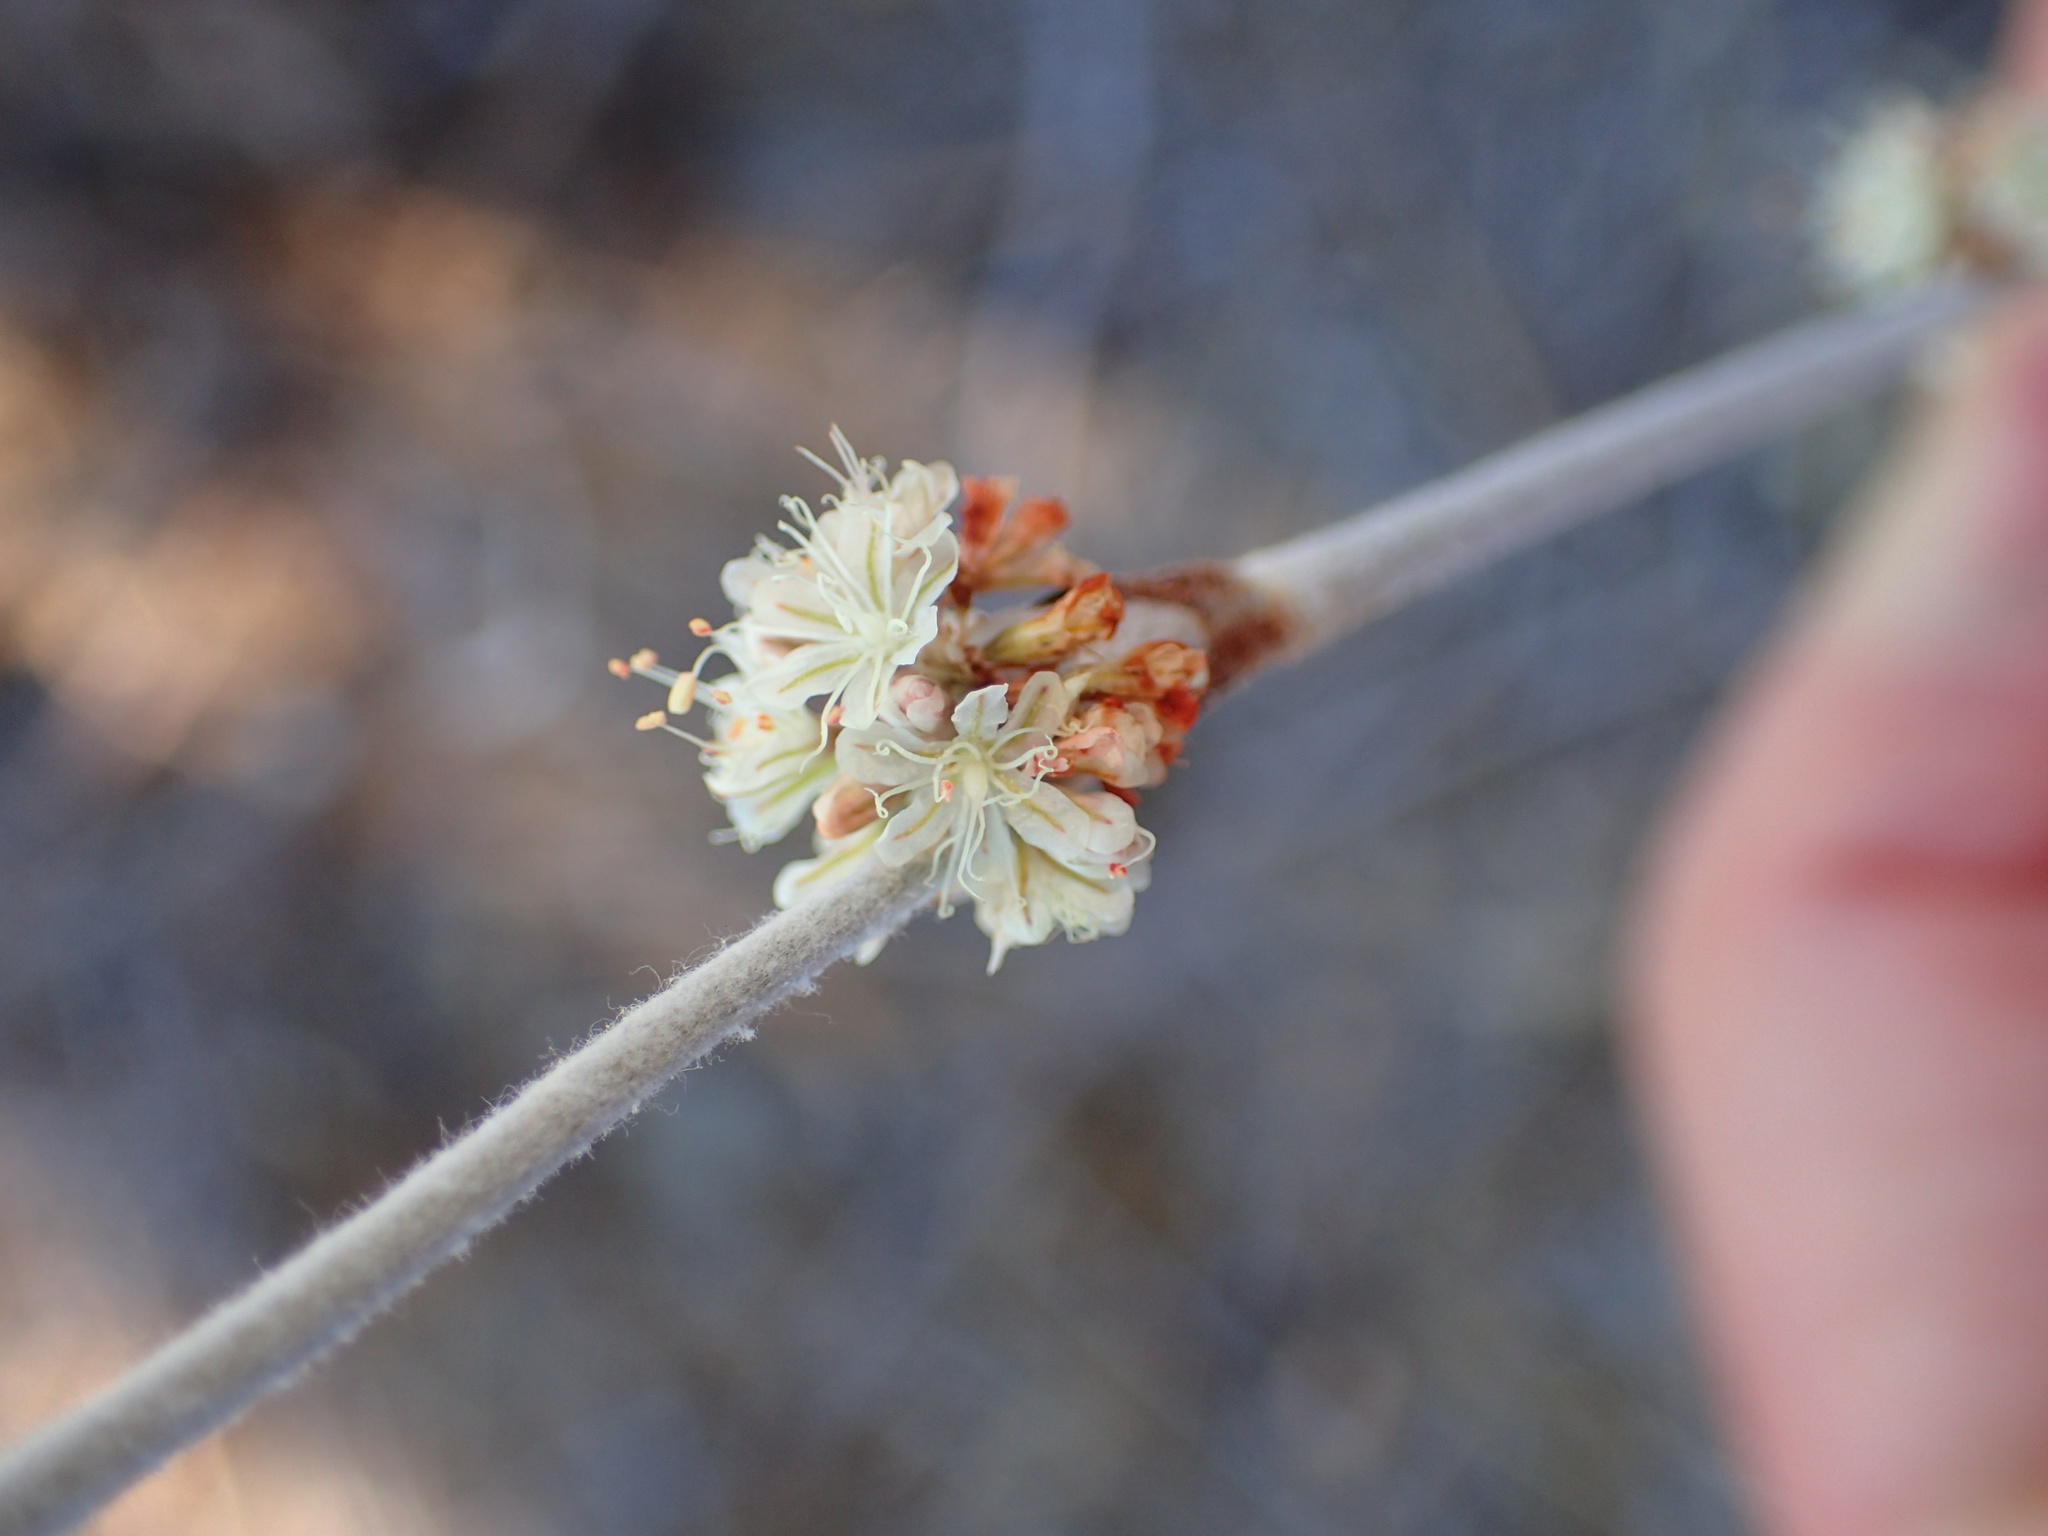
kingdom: Plantae
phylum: Tracheophyta
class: Magnoliopsida
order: Caryophyllales
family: Polygonaceae
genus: Eriogonum
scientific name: Eriogonum elongatum
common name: Long-stem wild buckwheat
